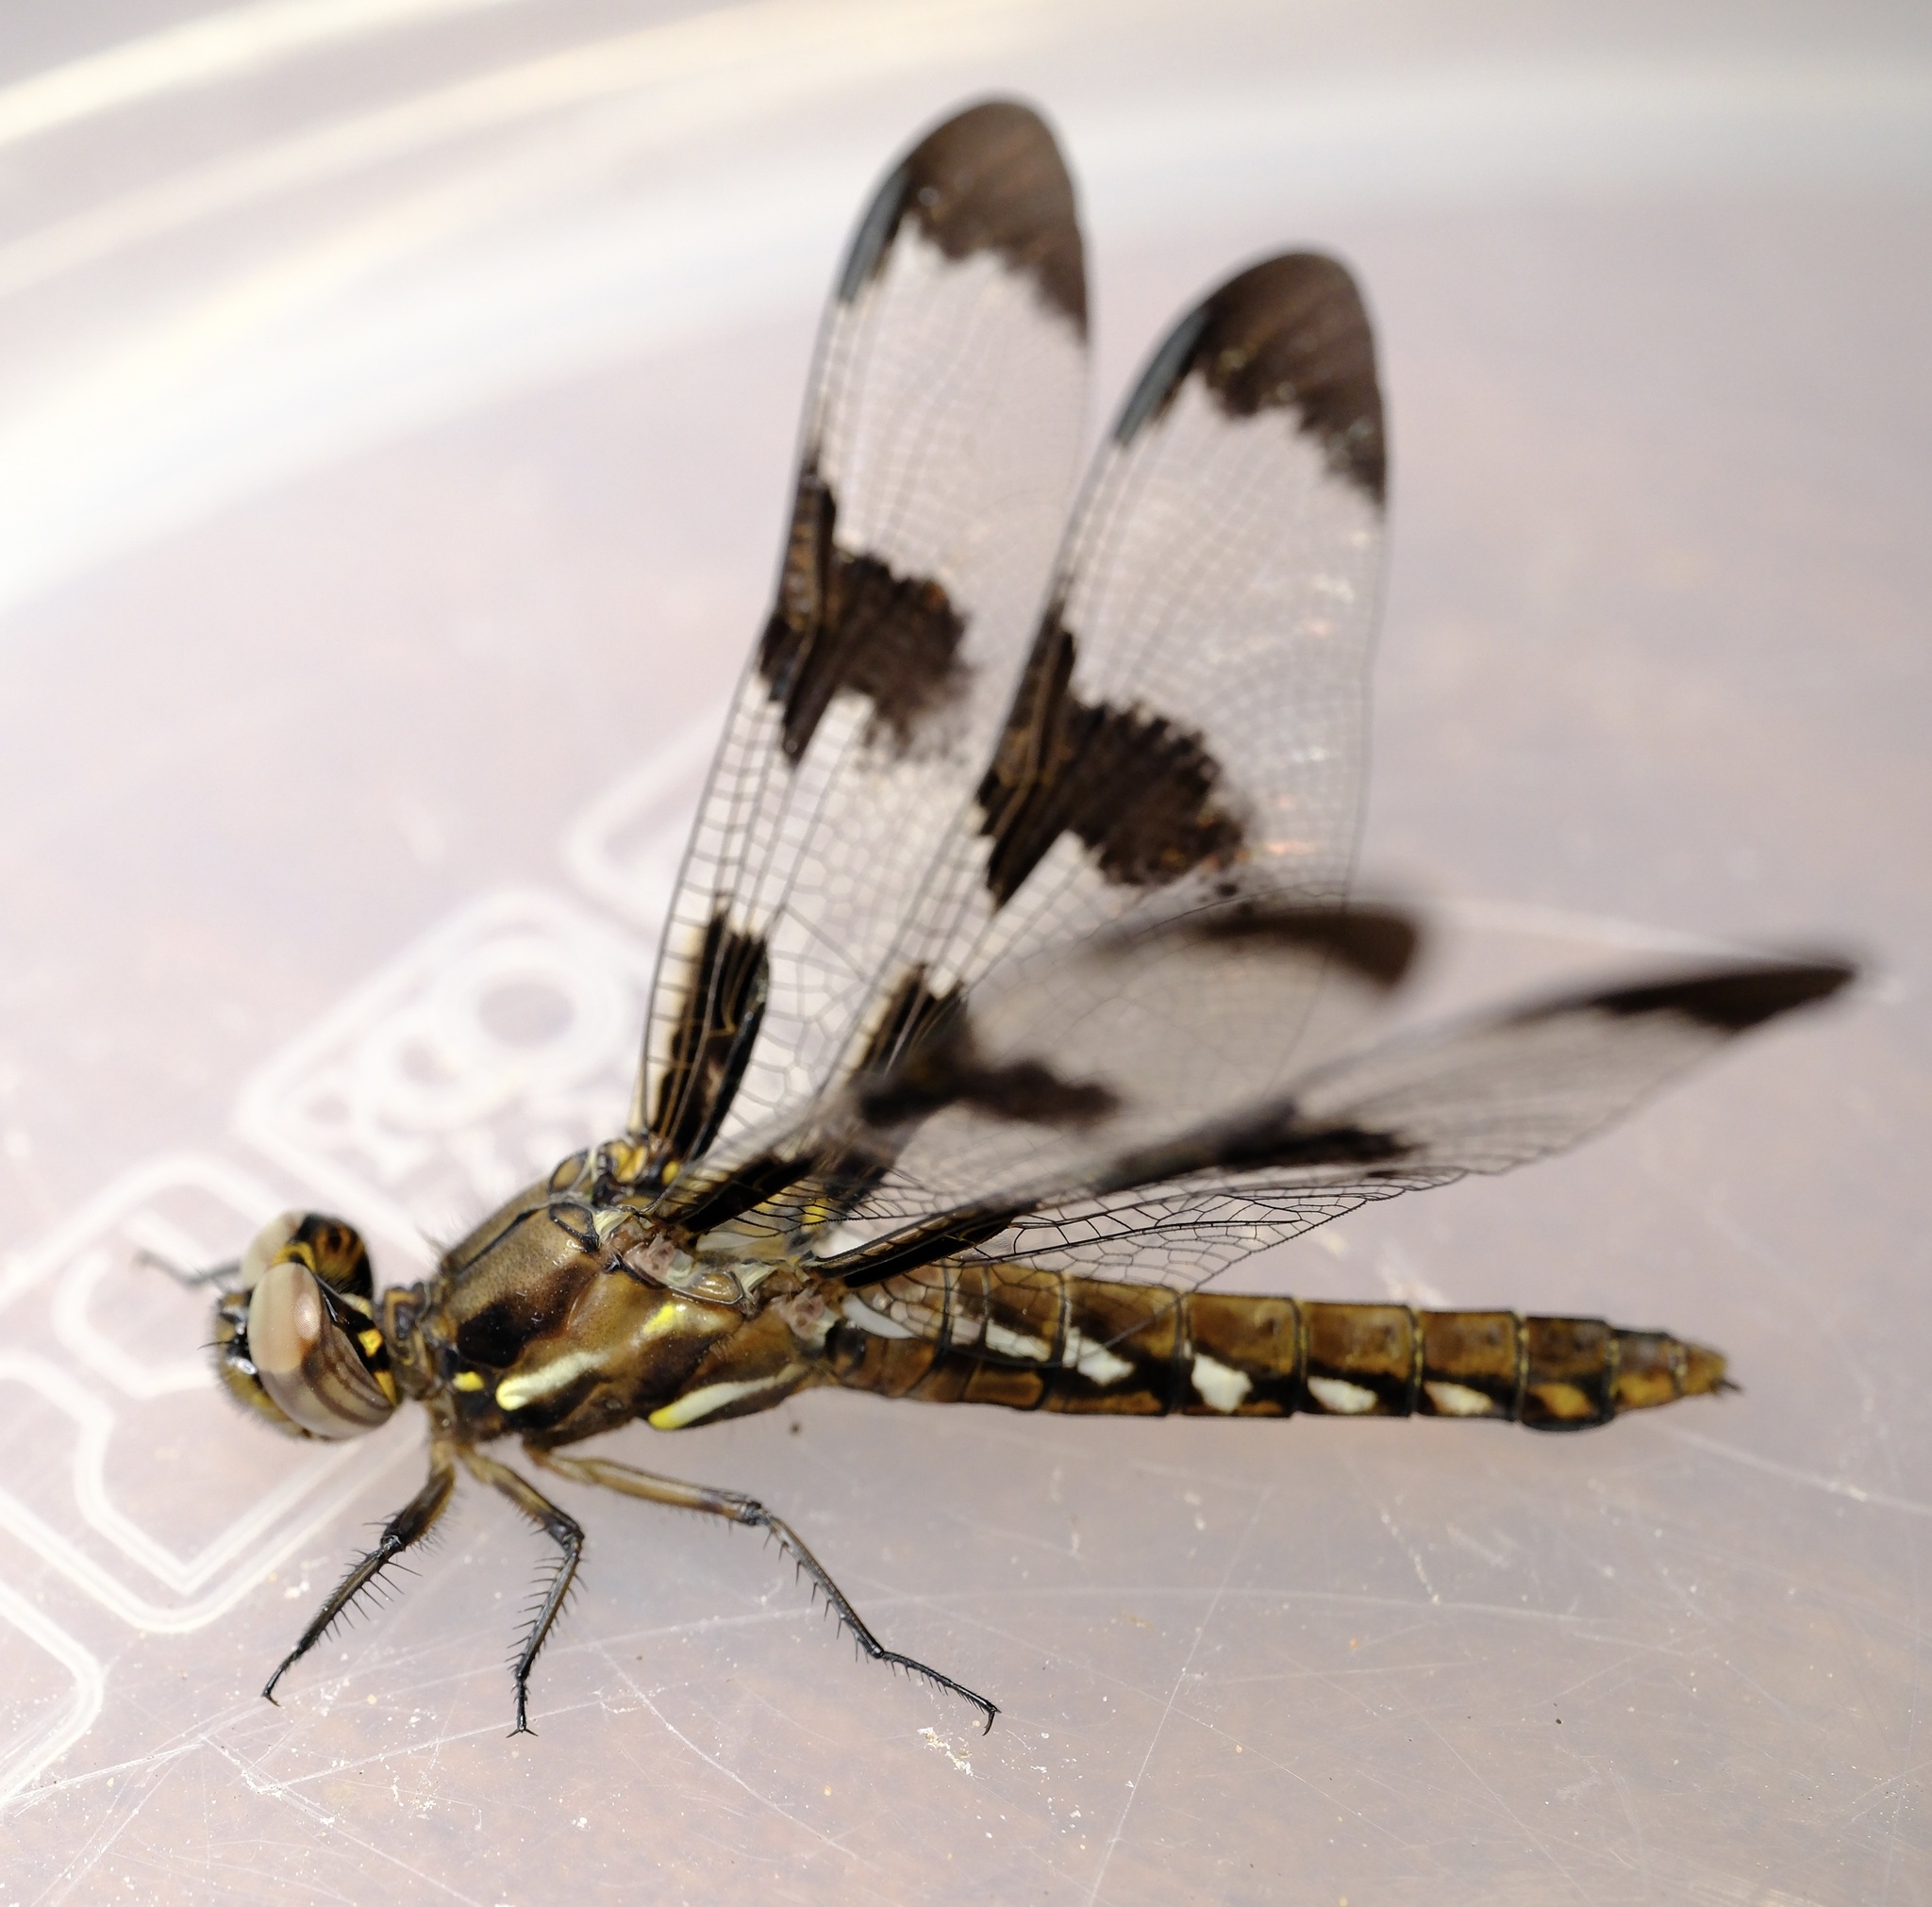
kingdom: Animalia
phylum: Arthropoda
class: Insecta
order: Odonata
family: Libellulidae
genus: Plathemis
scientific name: Plathemis lydia
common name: Common whitetail
